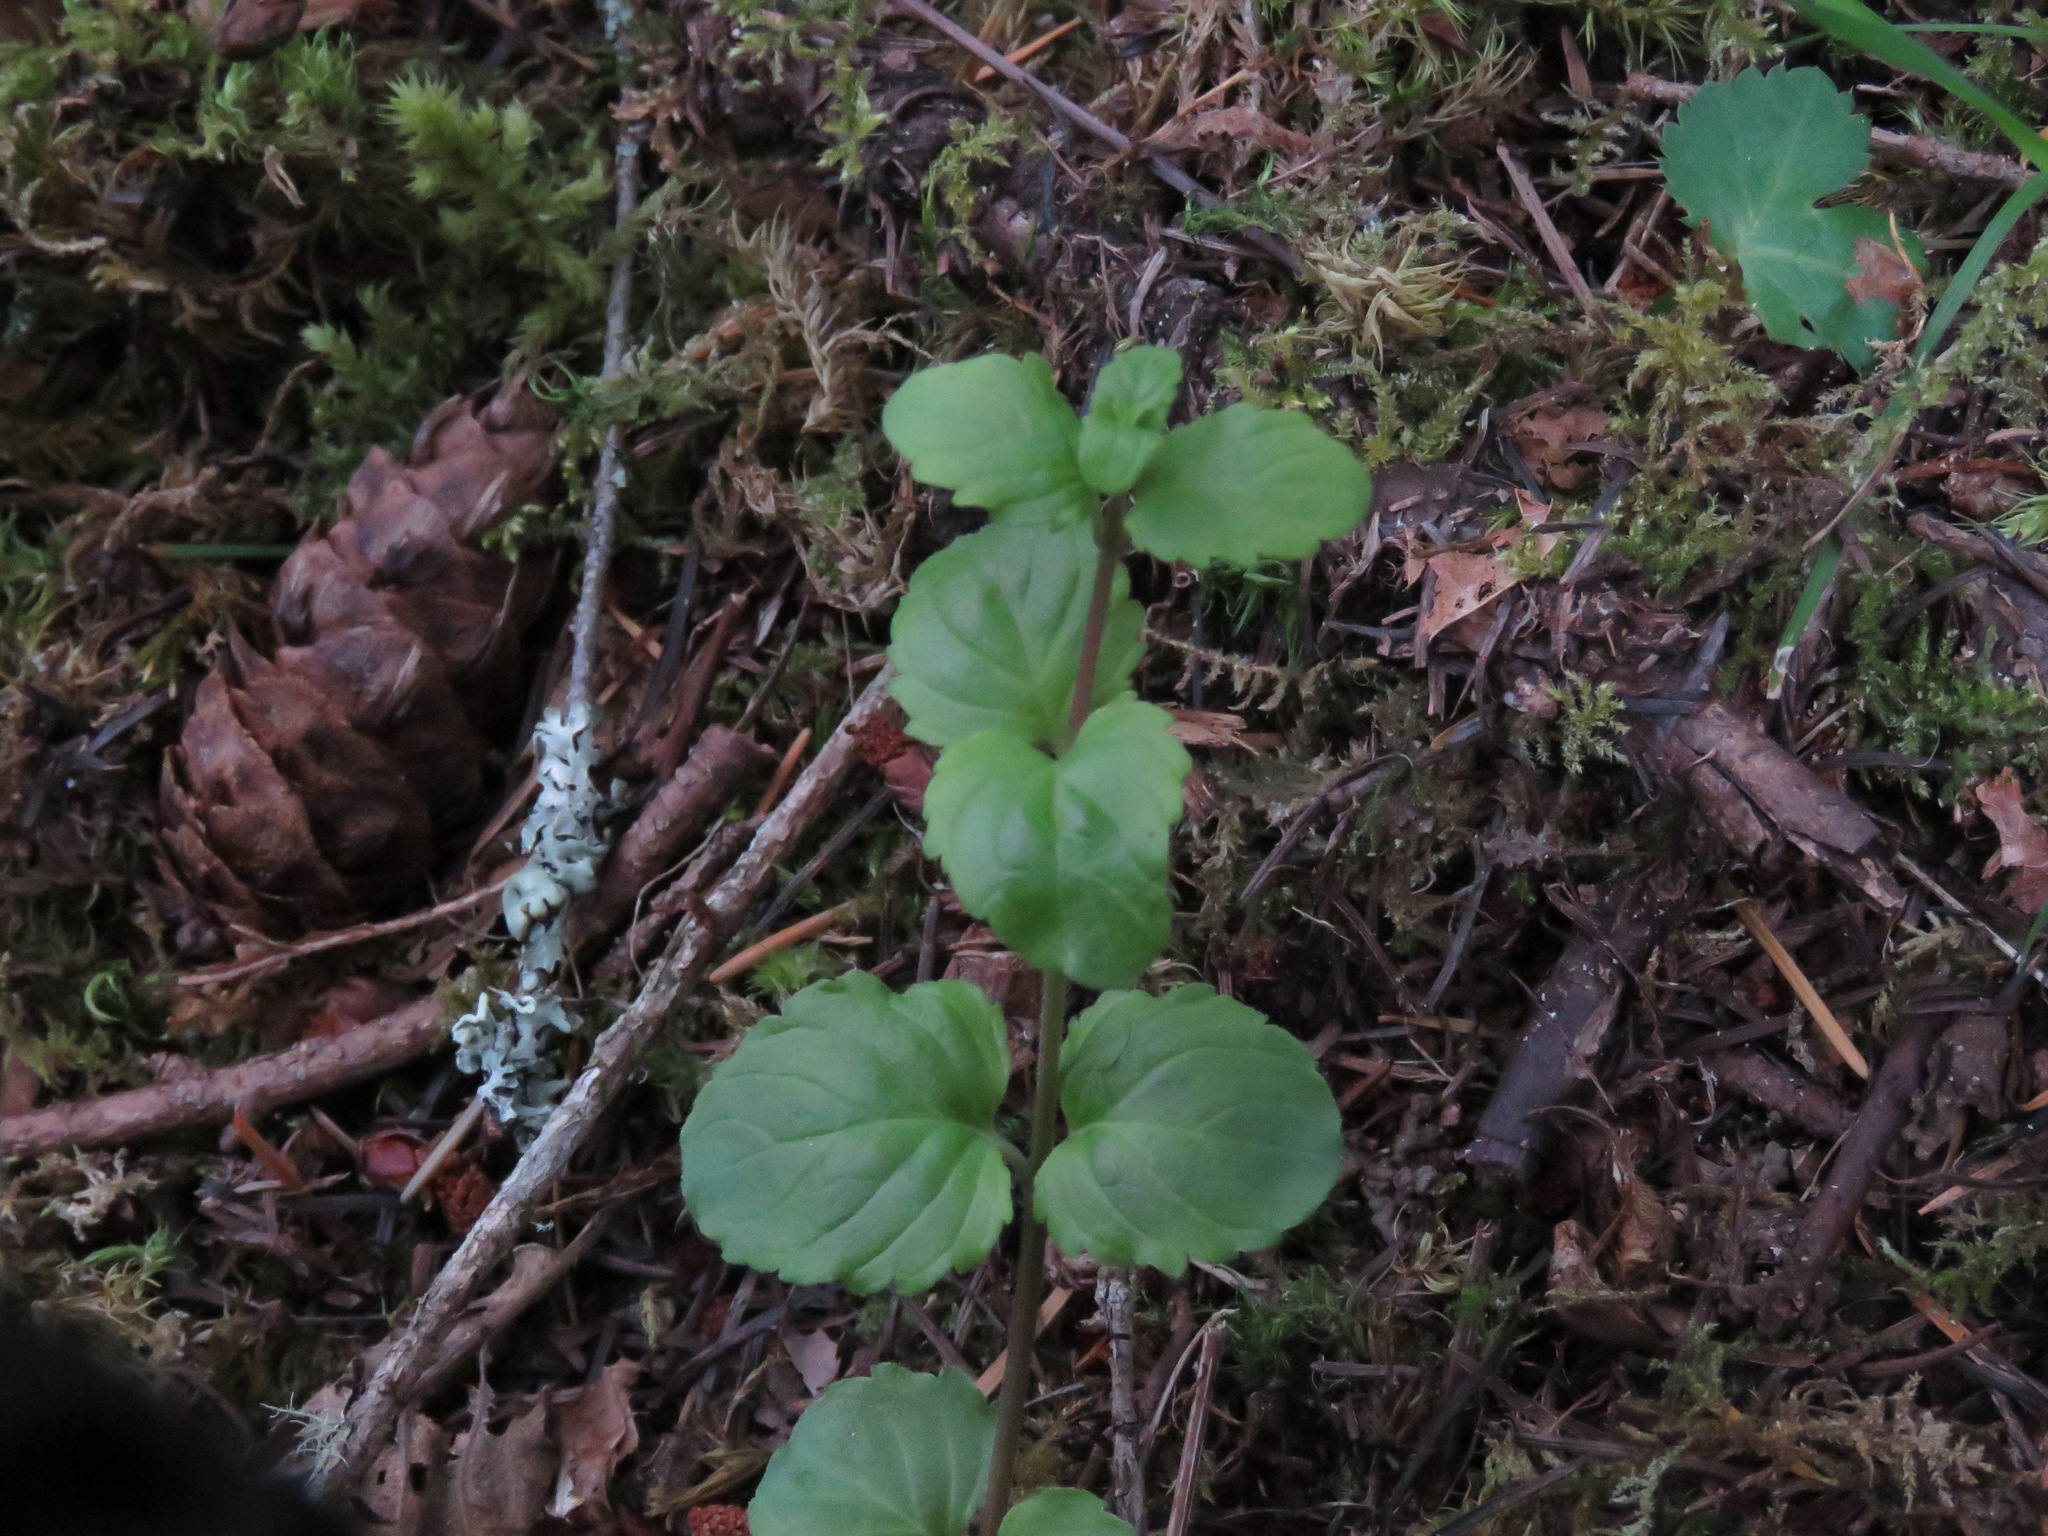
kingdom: Plantae
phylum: Tracheophyta
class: Magnoliopsida
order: Lamiales
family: Lamiaceae
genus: Micromeria
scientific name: Micromeria douglasii
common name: Yerba buena
